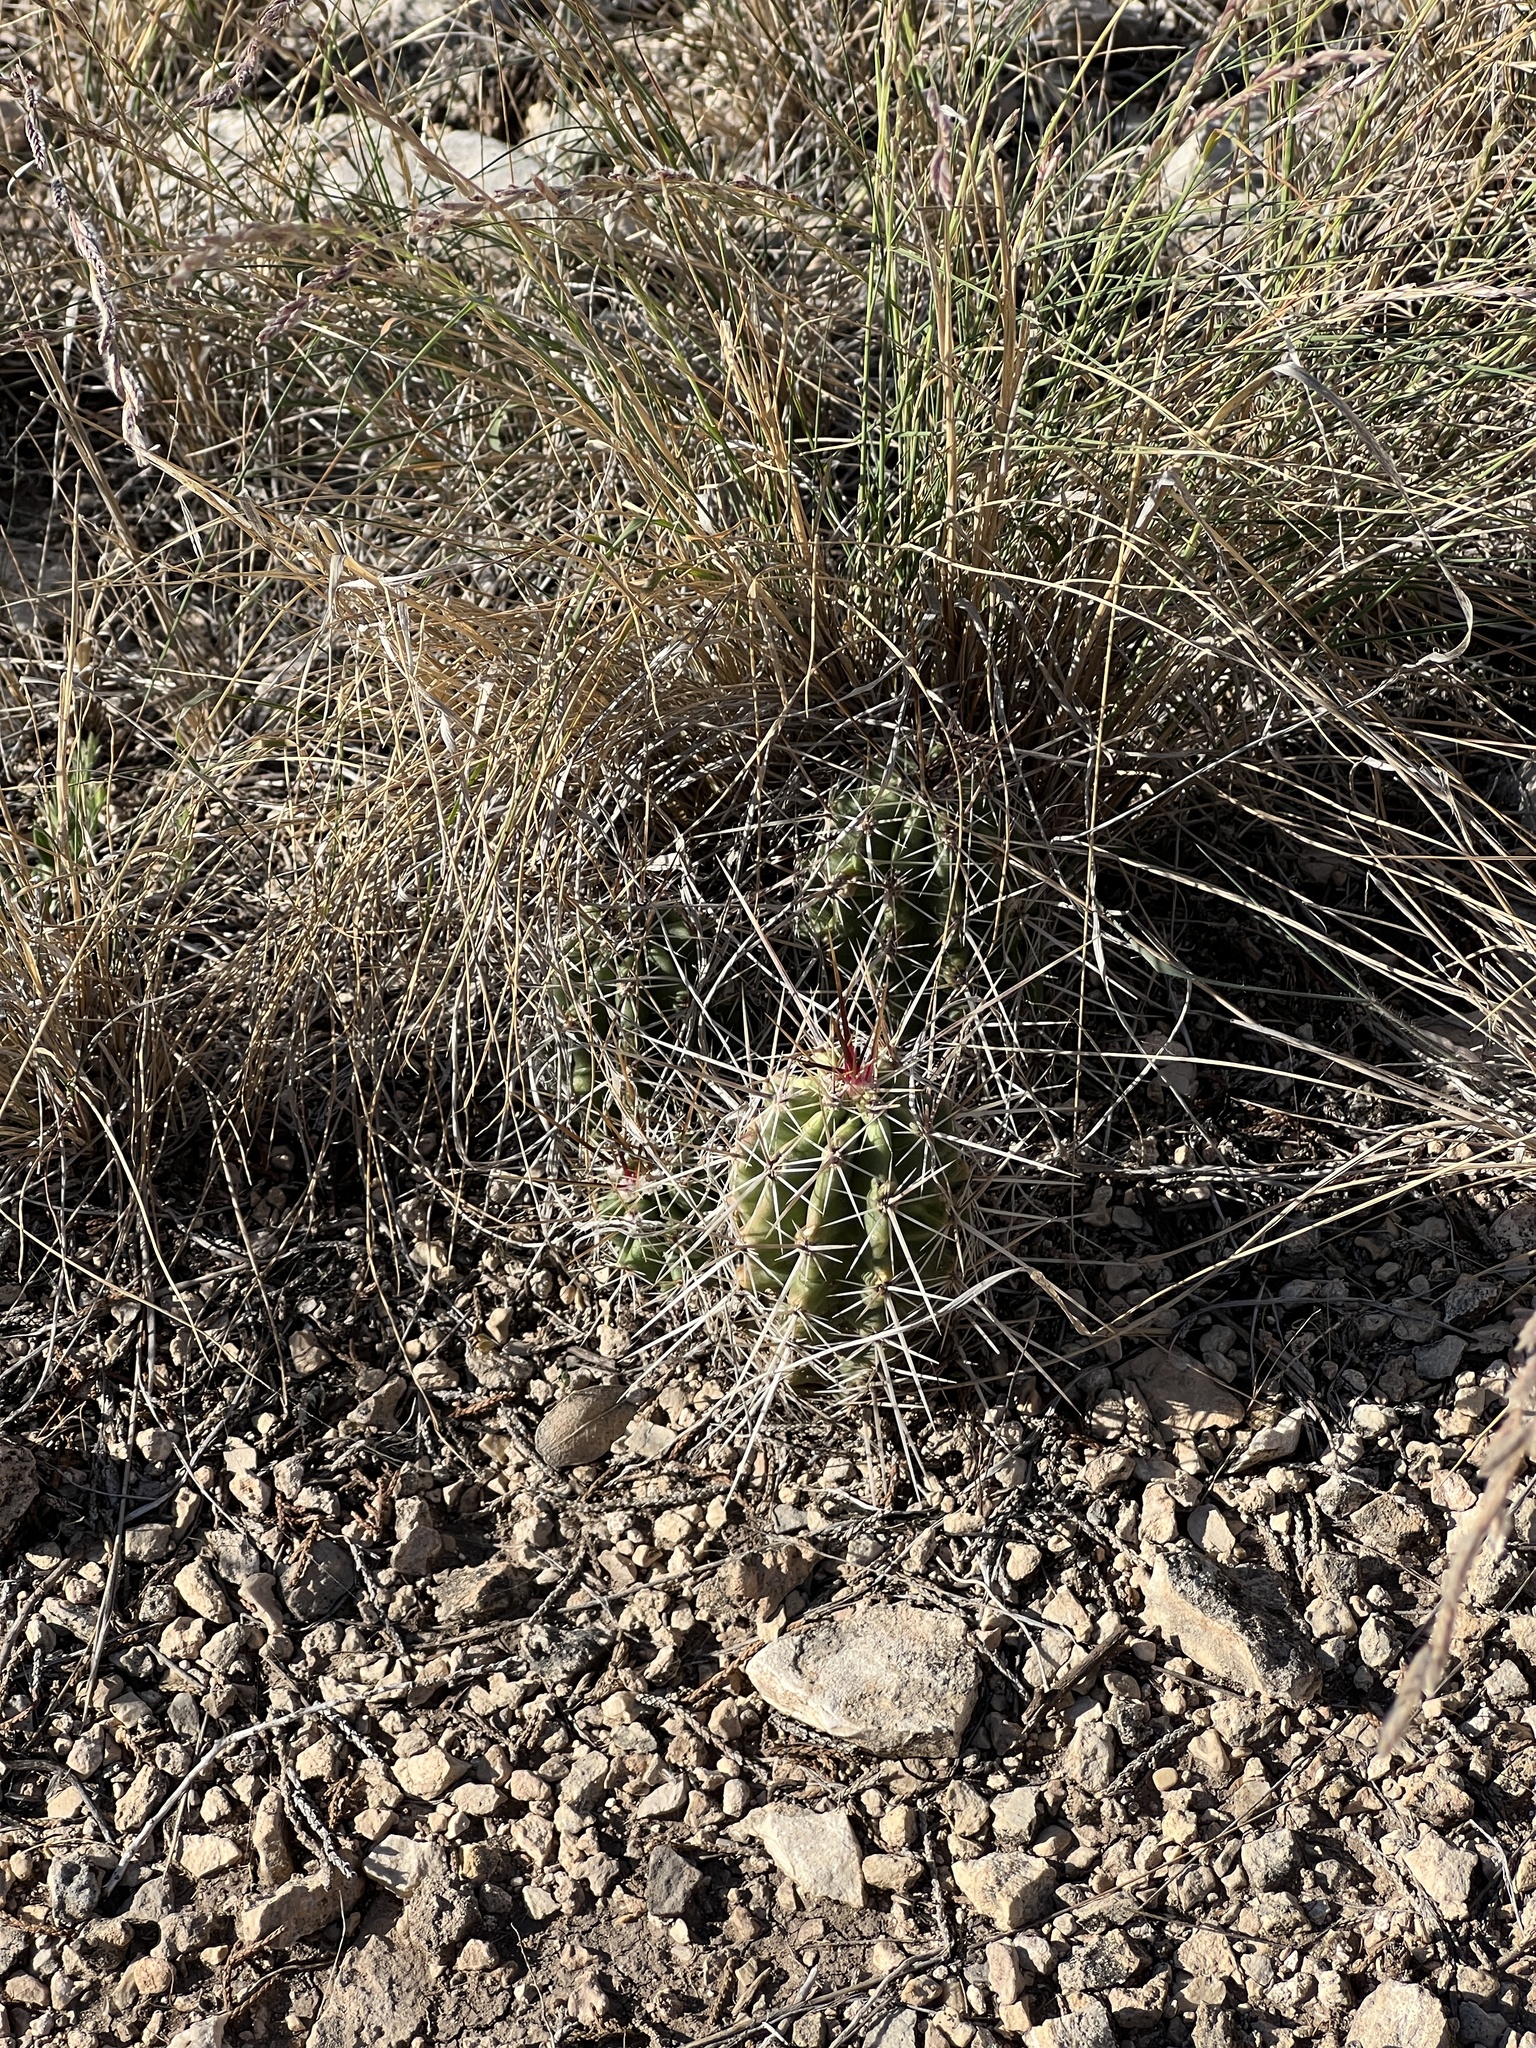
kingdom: Plantae
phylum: Tracheophyta
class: Magnoliopsida
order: Caryophyllales
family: Cactaceae
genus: Echinocereus
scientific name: Echinocereus enneacanthus
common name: Pitaya
